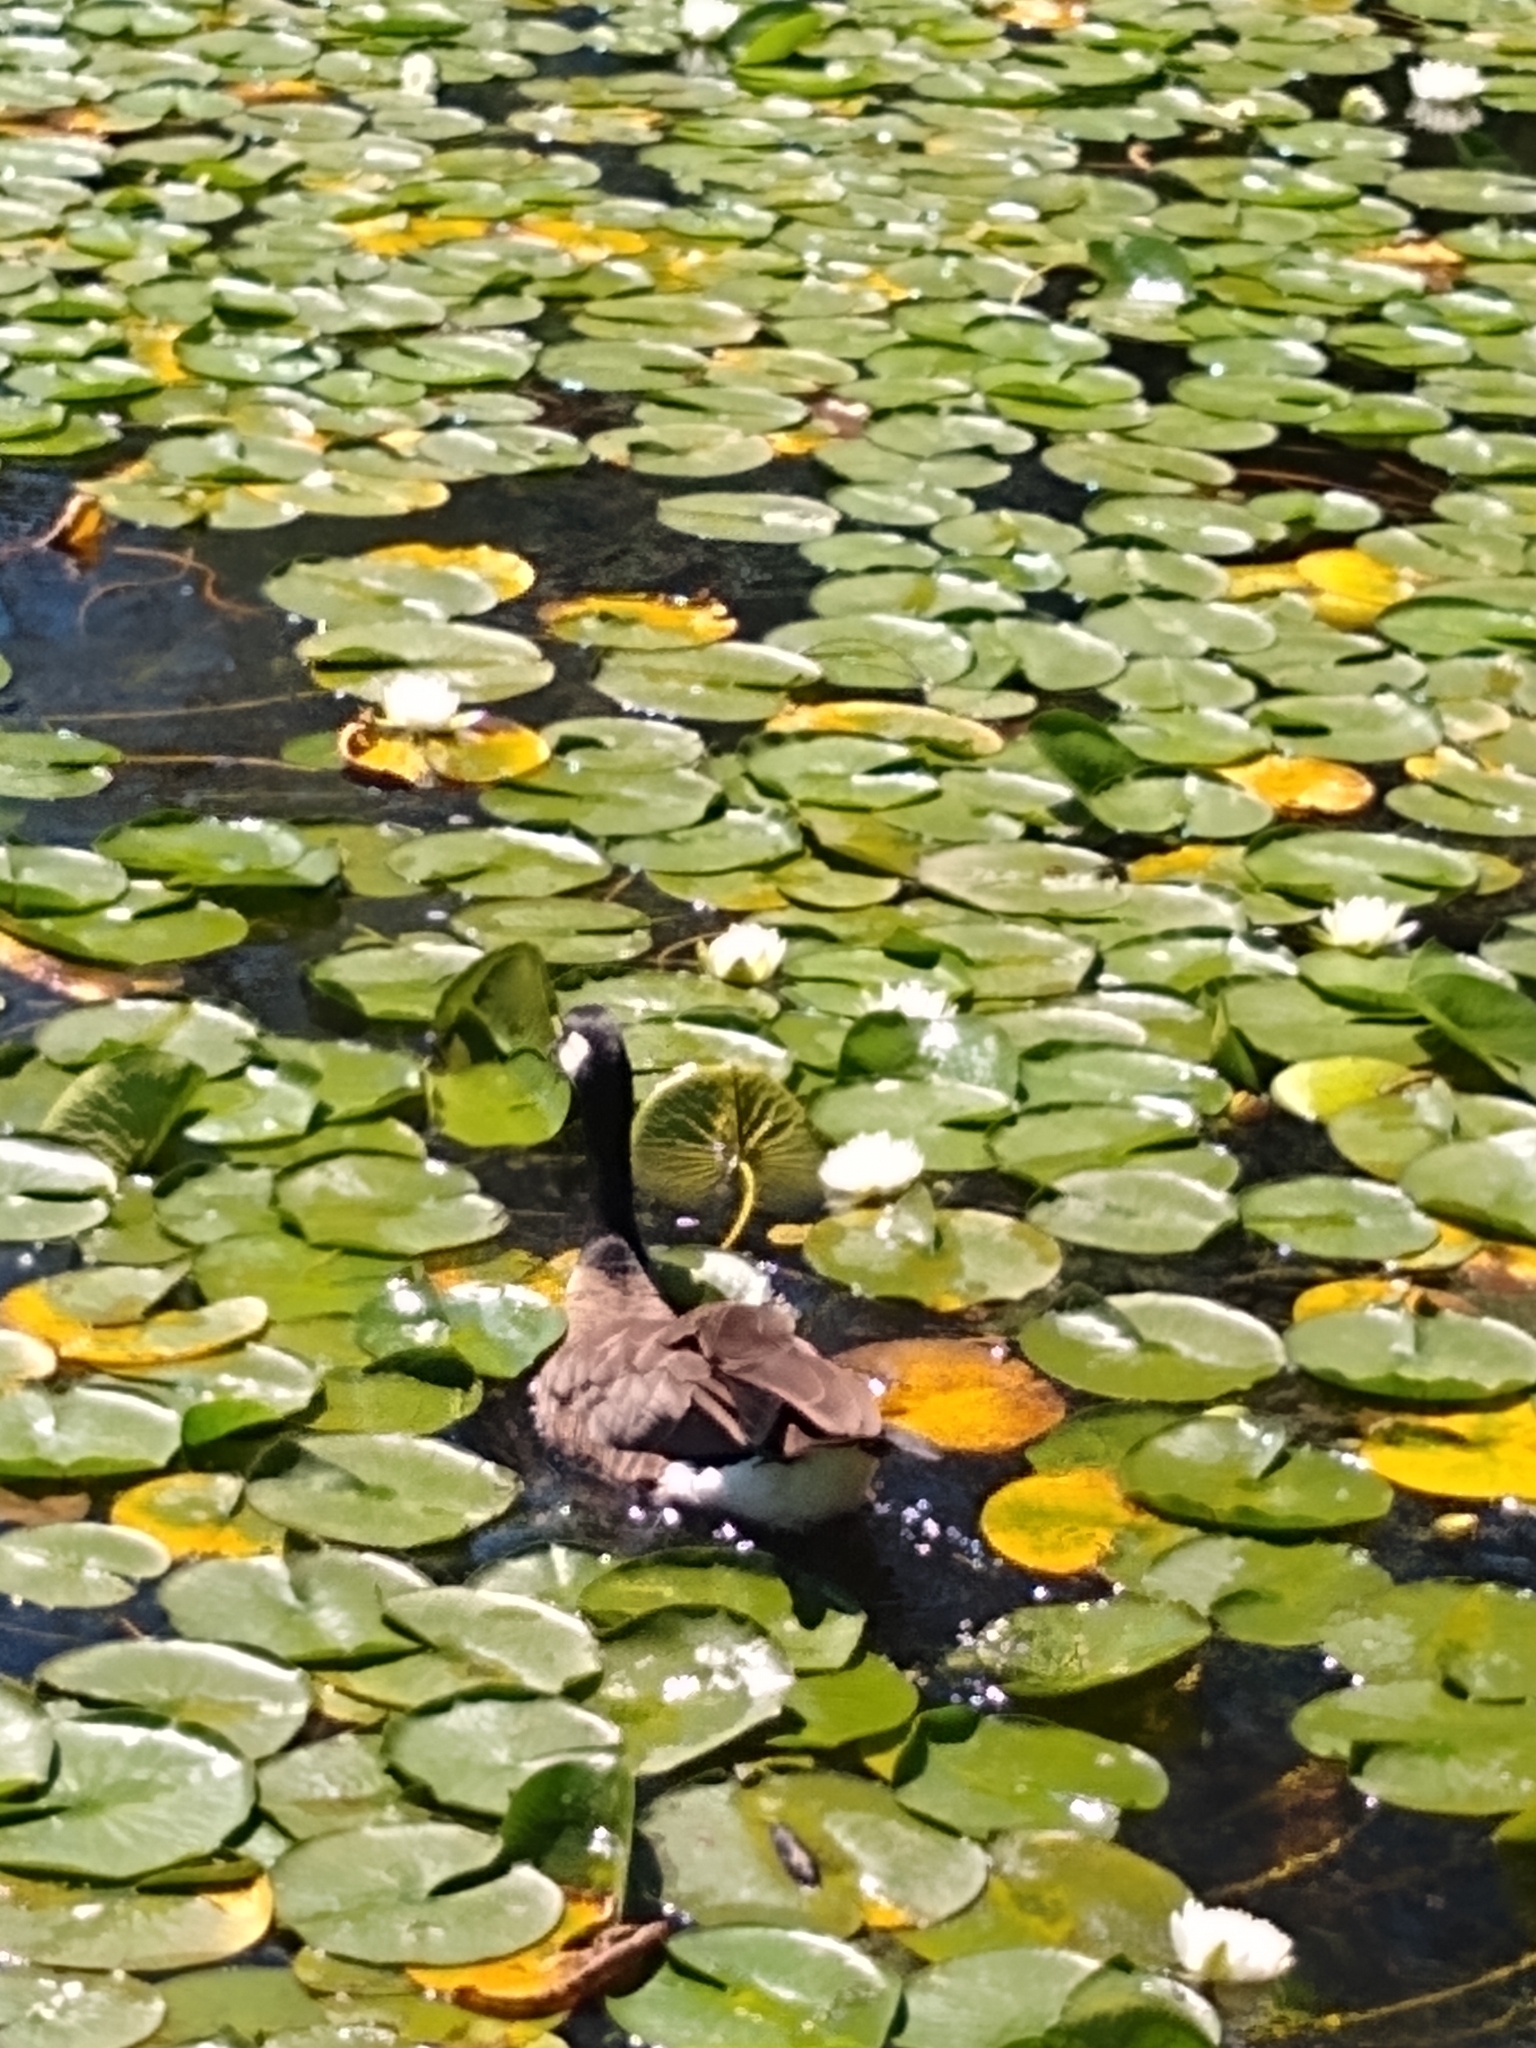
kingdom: Animalia
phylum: Chordata
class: Aves
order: Anseriformes
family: Anatidae
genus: Branta
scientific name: Branta canadensis
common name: Canada goose
